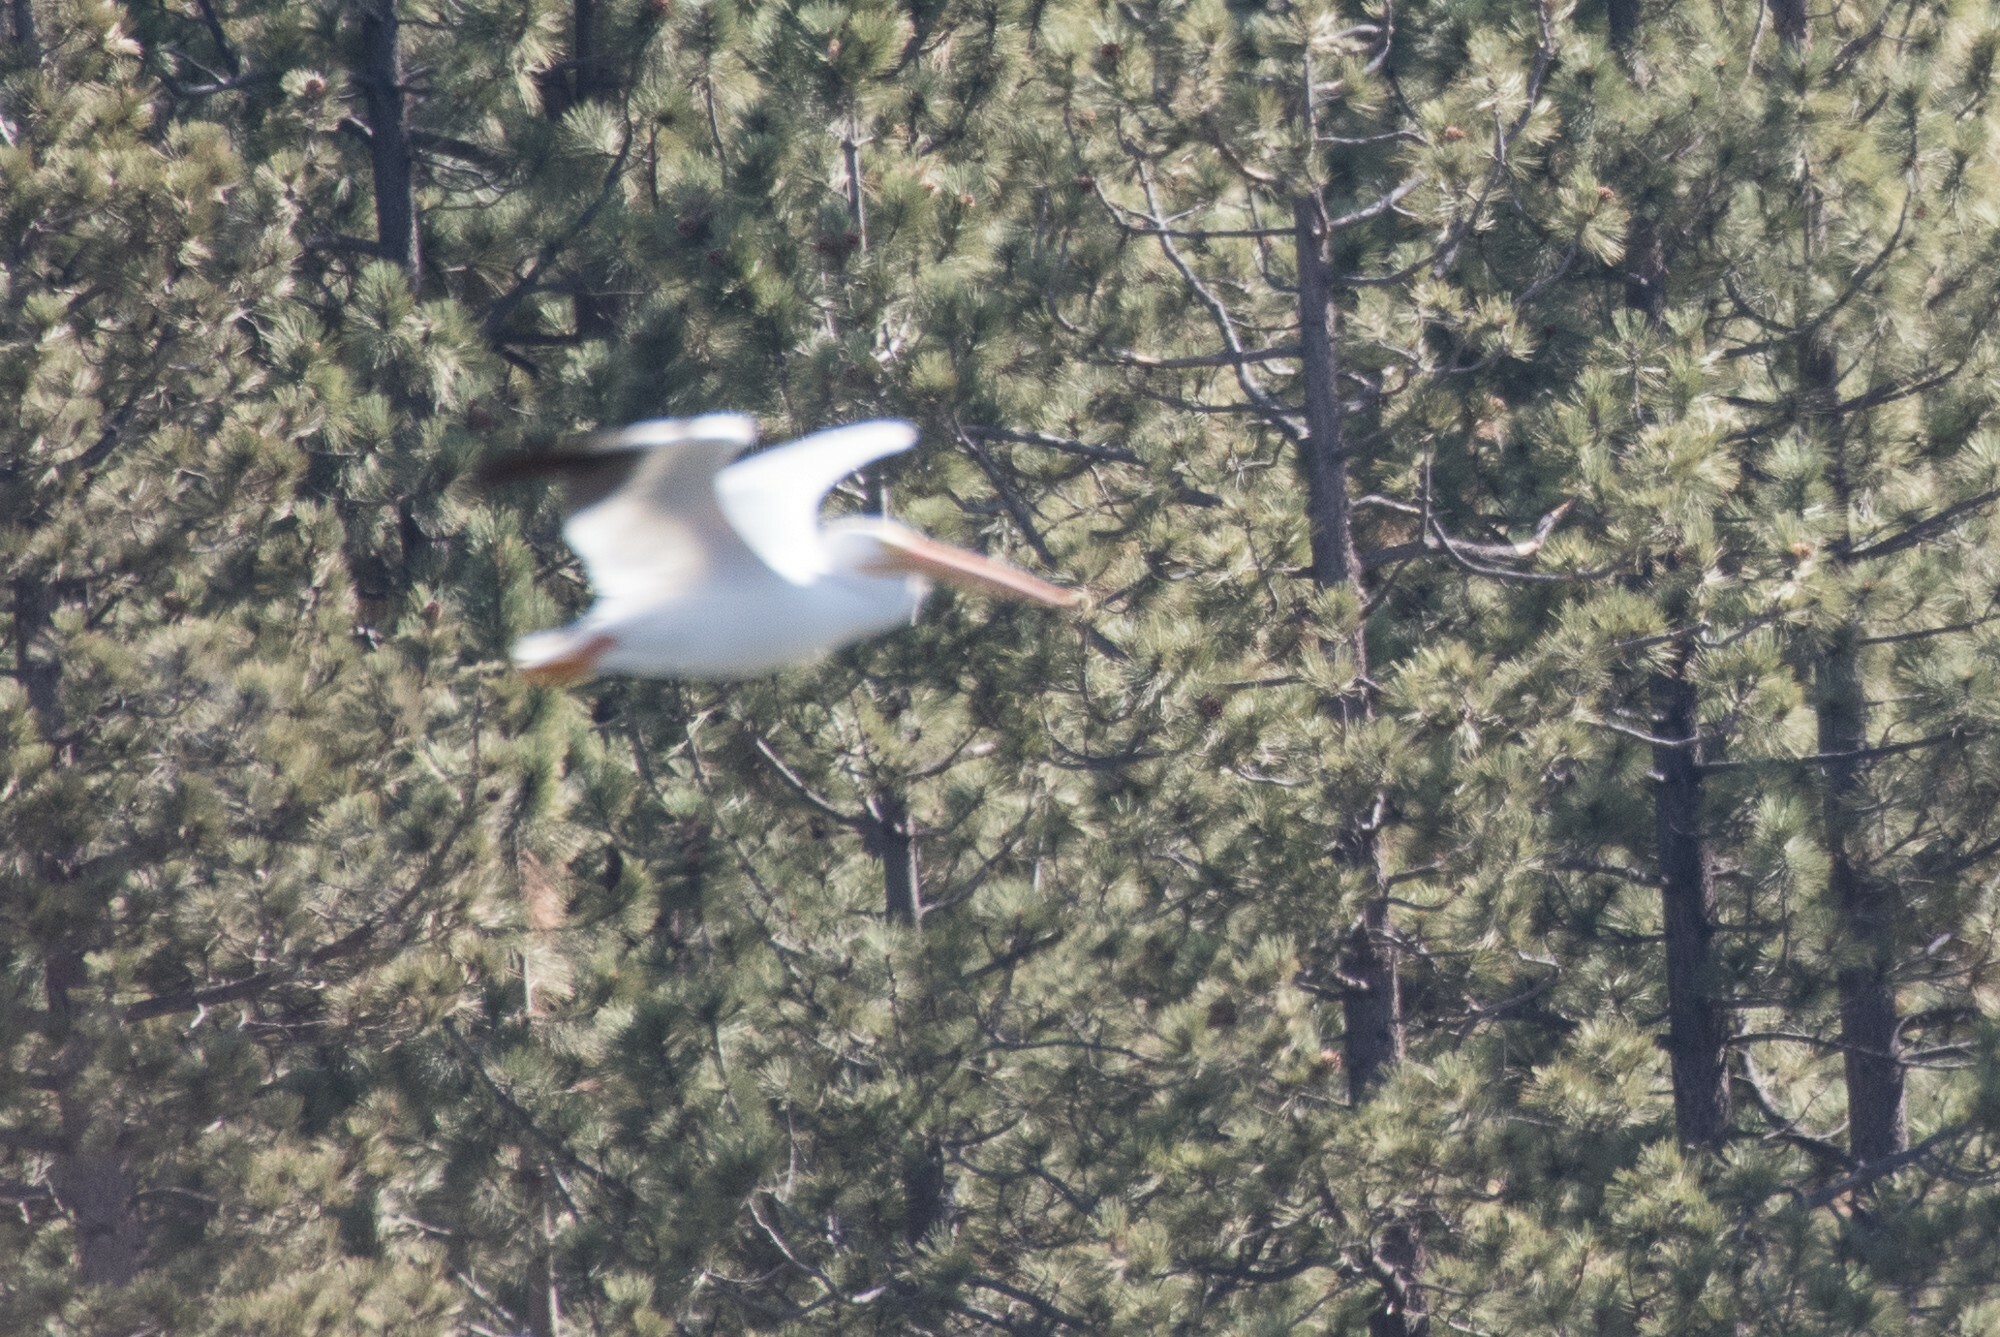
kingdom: Animalia
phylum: Chordata
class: Aves
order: Pelecaniformes
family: Pelecanidae
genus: Pelecanus
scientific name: Pelecanus erythrorhynchos
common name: American white pelican
